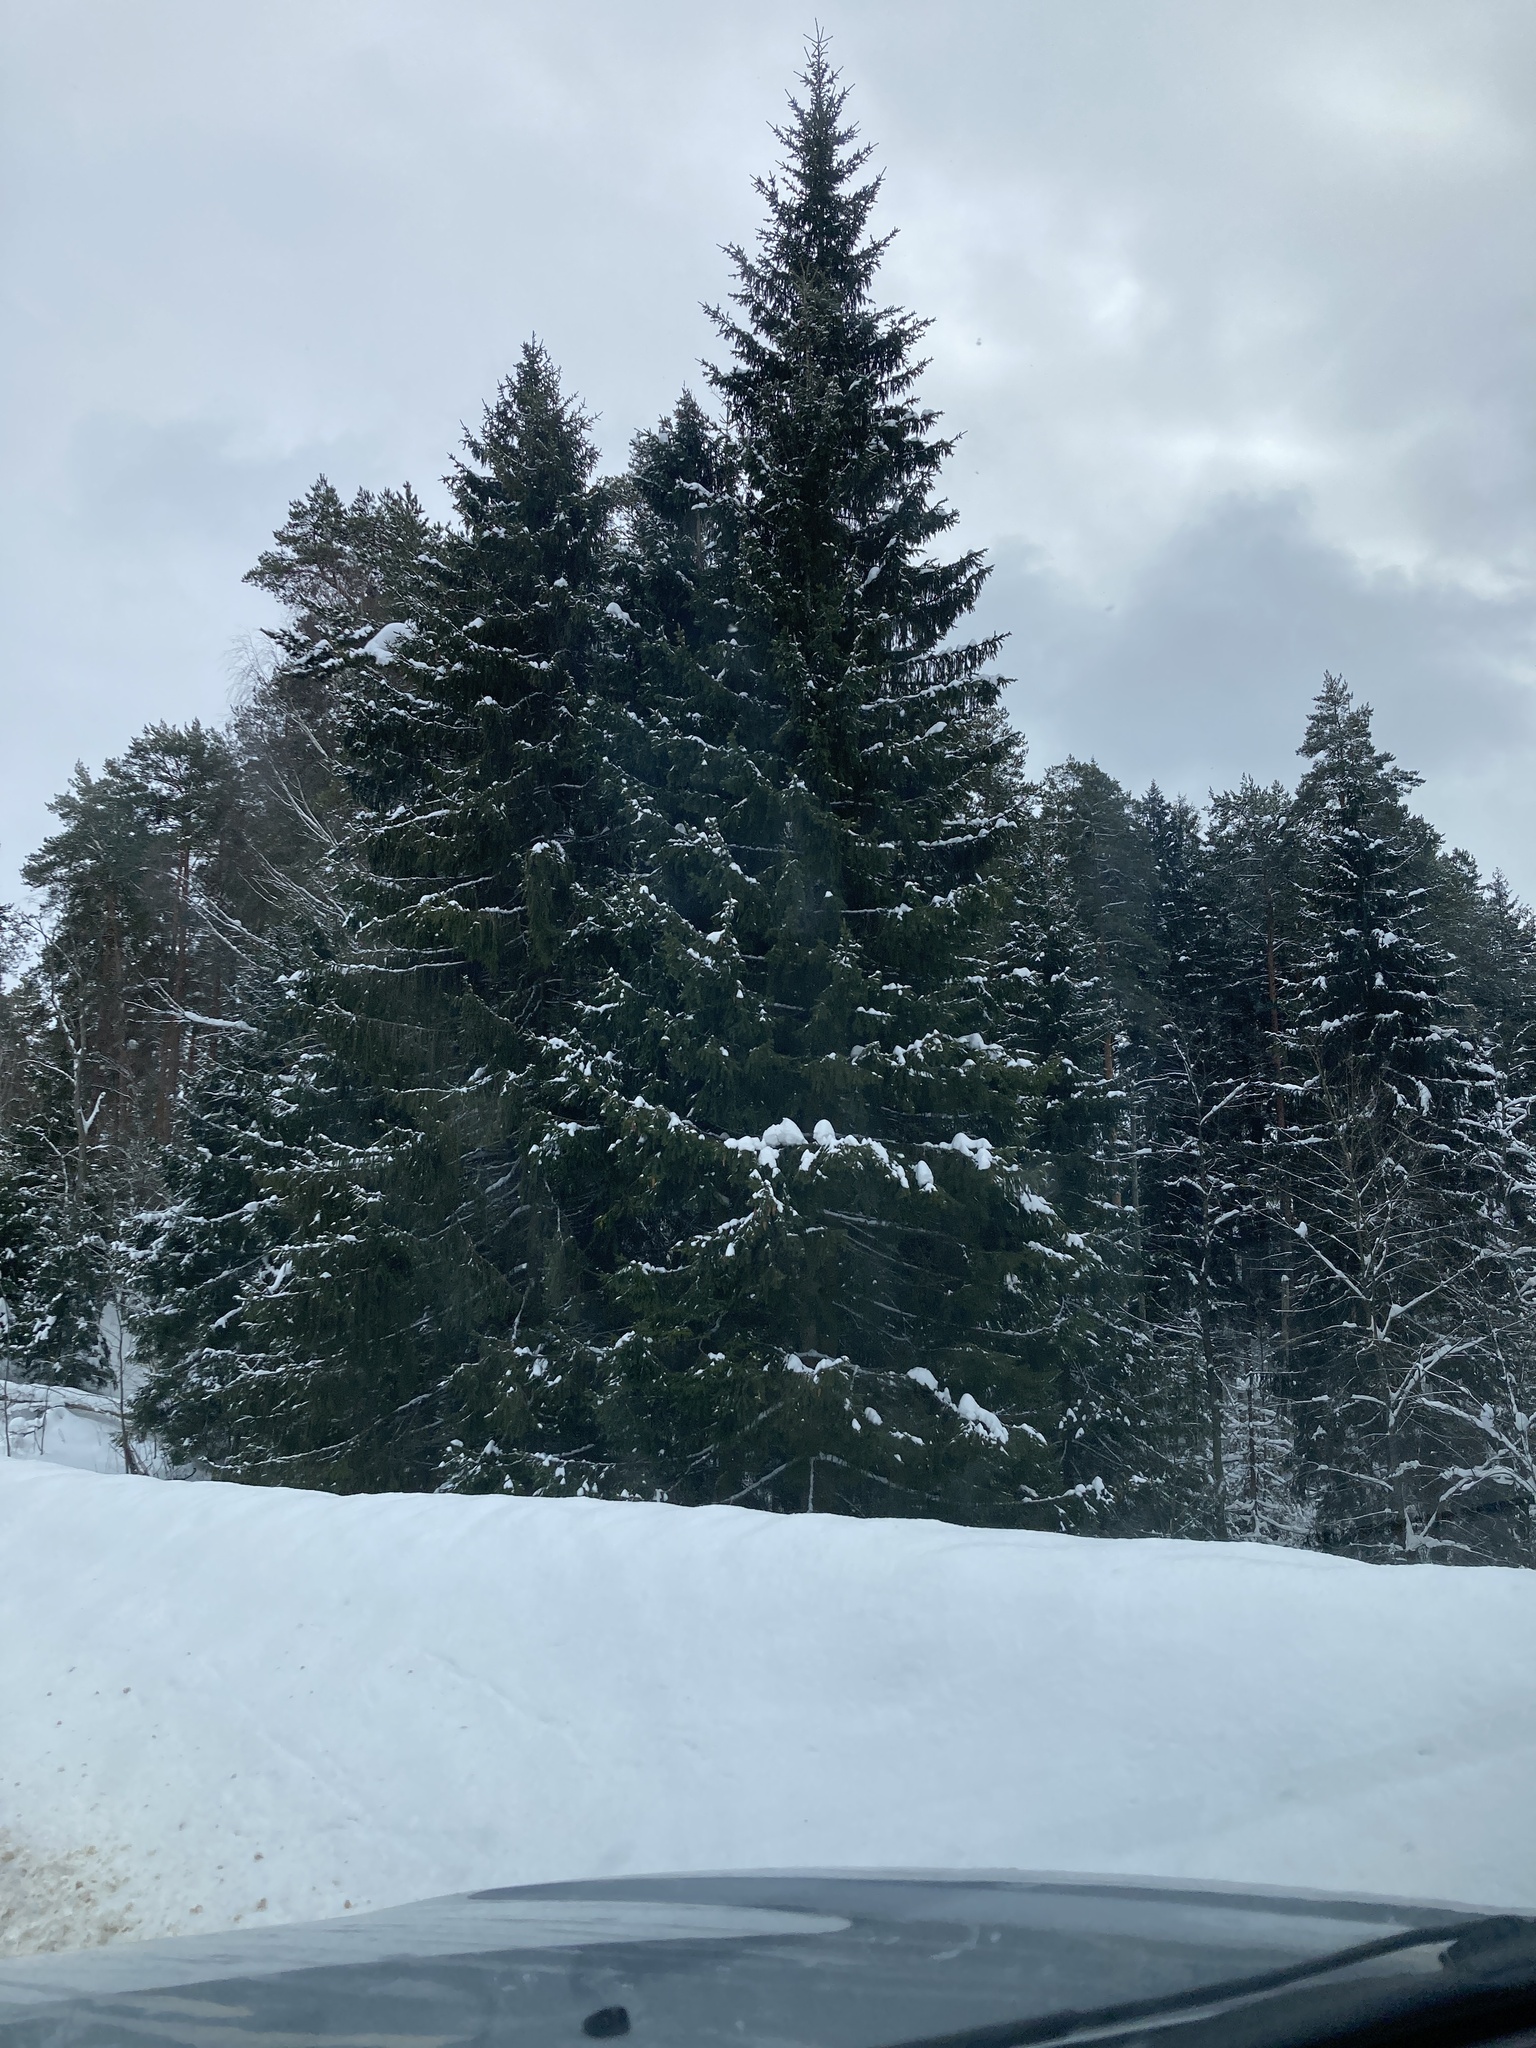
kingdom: Plantae
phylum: Tracheophyta
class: Pinopsida
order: Pinales
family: Pinaceae
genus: Picea
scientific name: Picea abies
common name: Norway spruce
